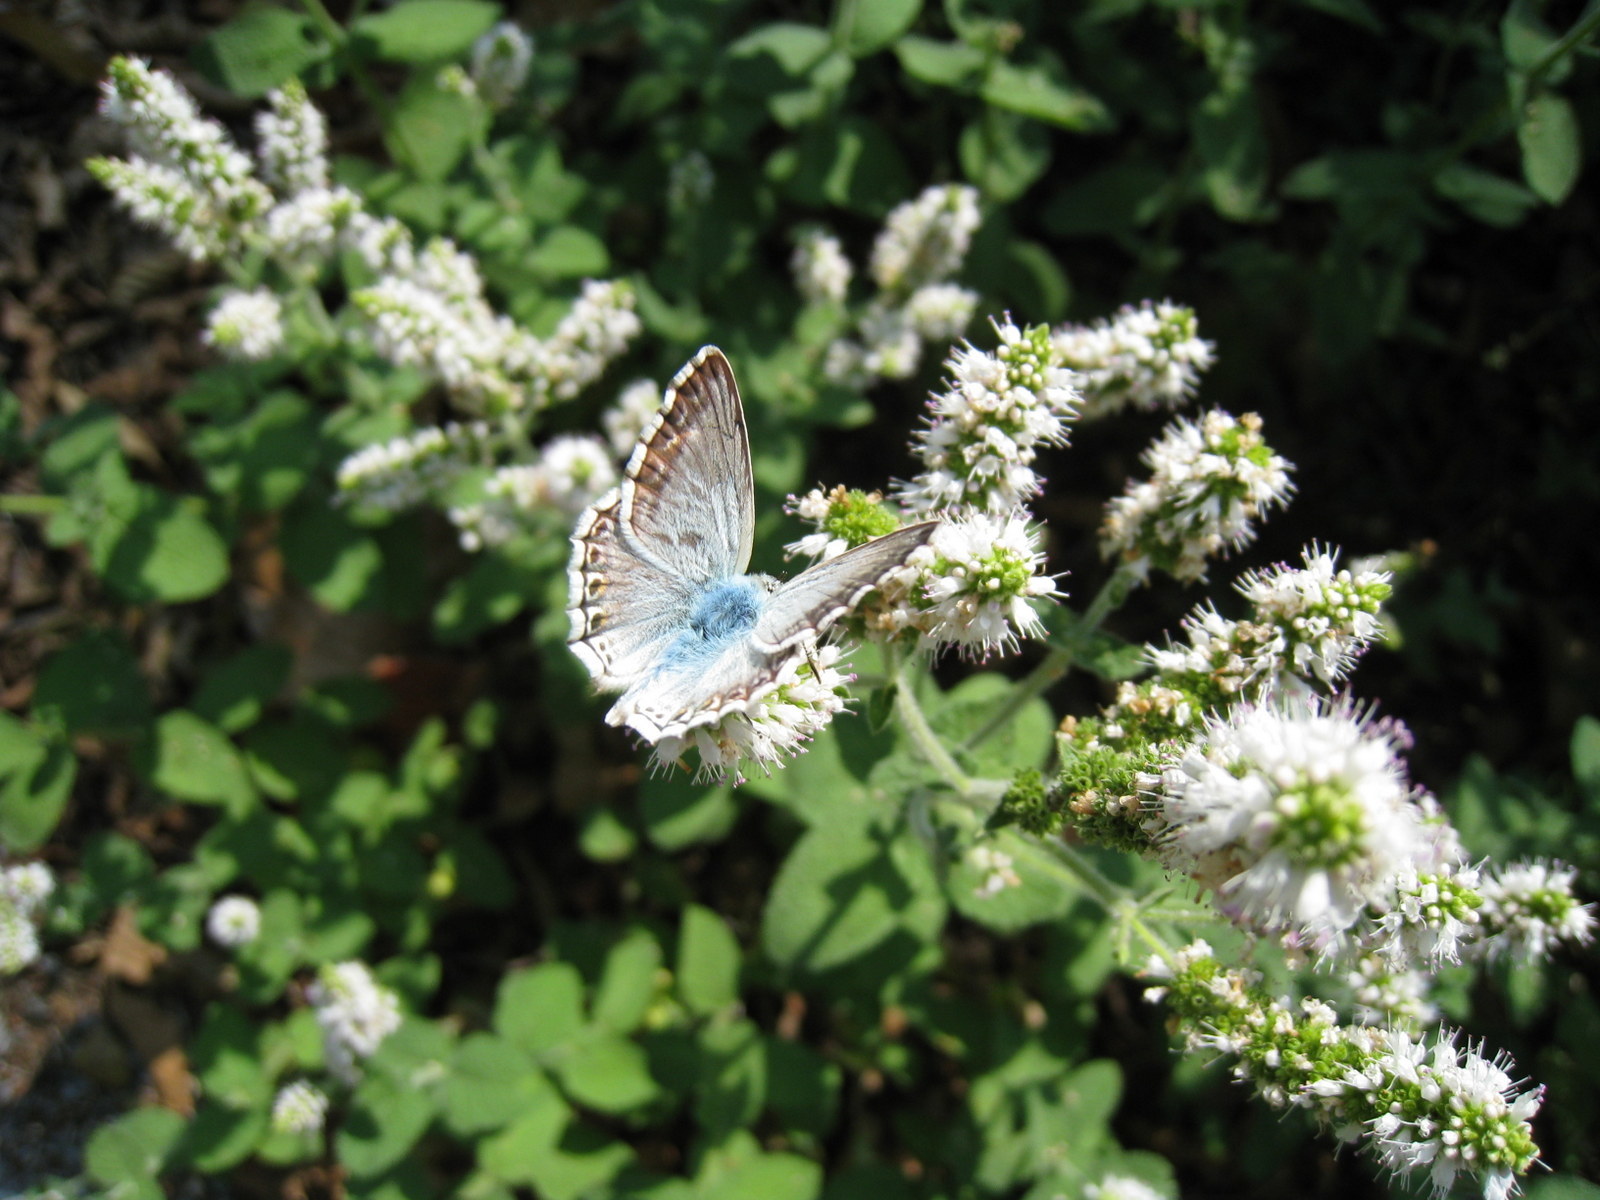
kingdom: Animalia
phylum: Arthropoda
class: Insecta
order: Lepidoptera
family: Lycaenidae
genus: Lysandra
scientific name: Lysandra hispana
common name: Provence chalkhill blue
